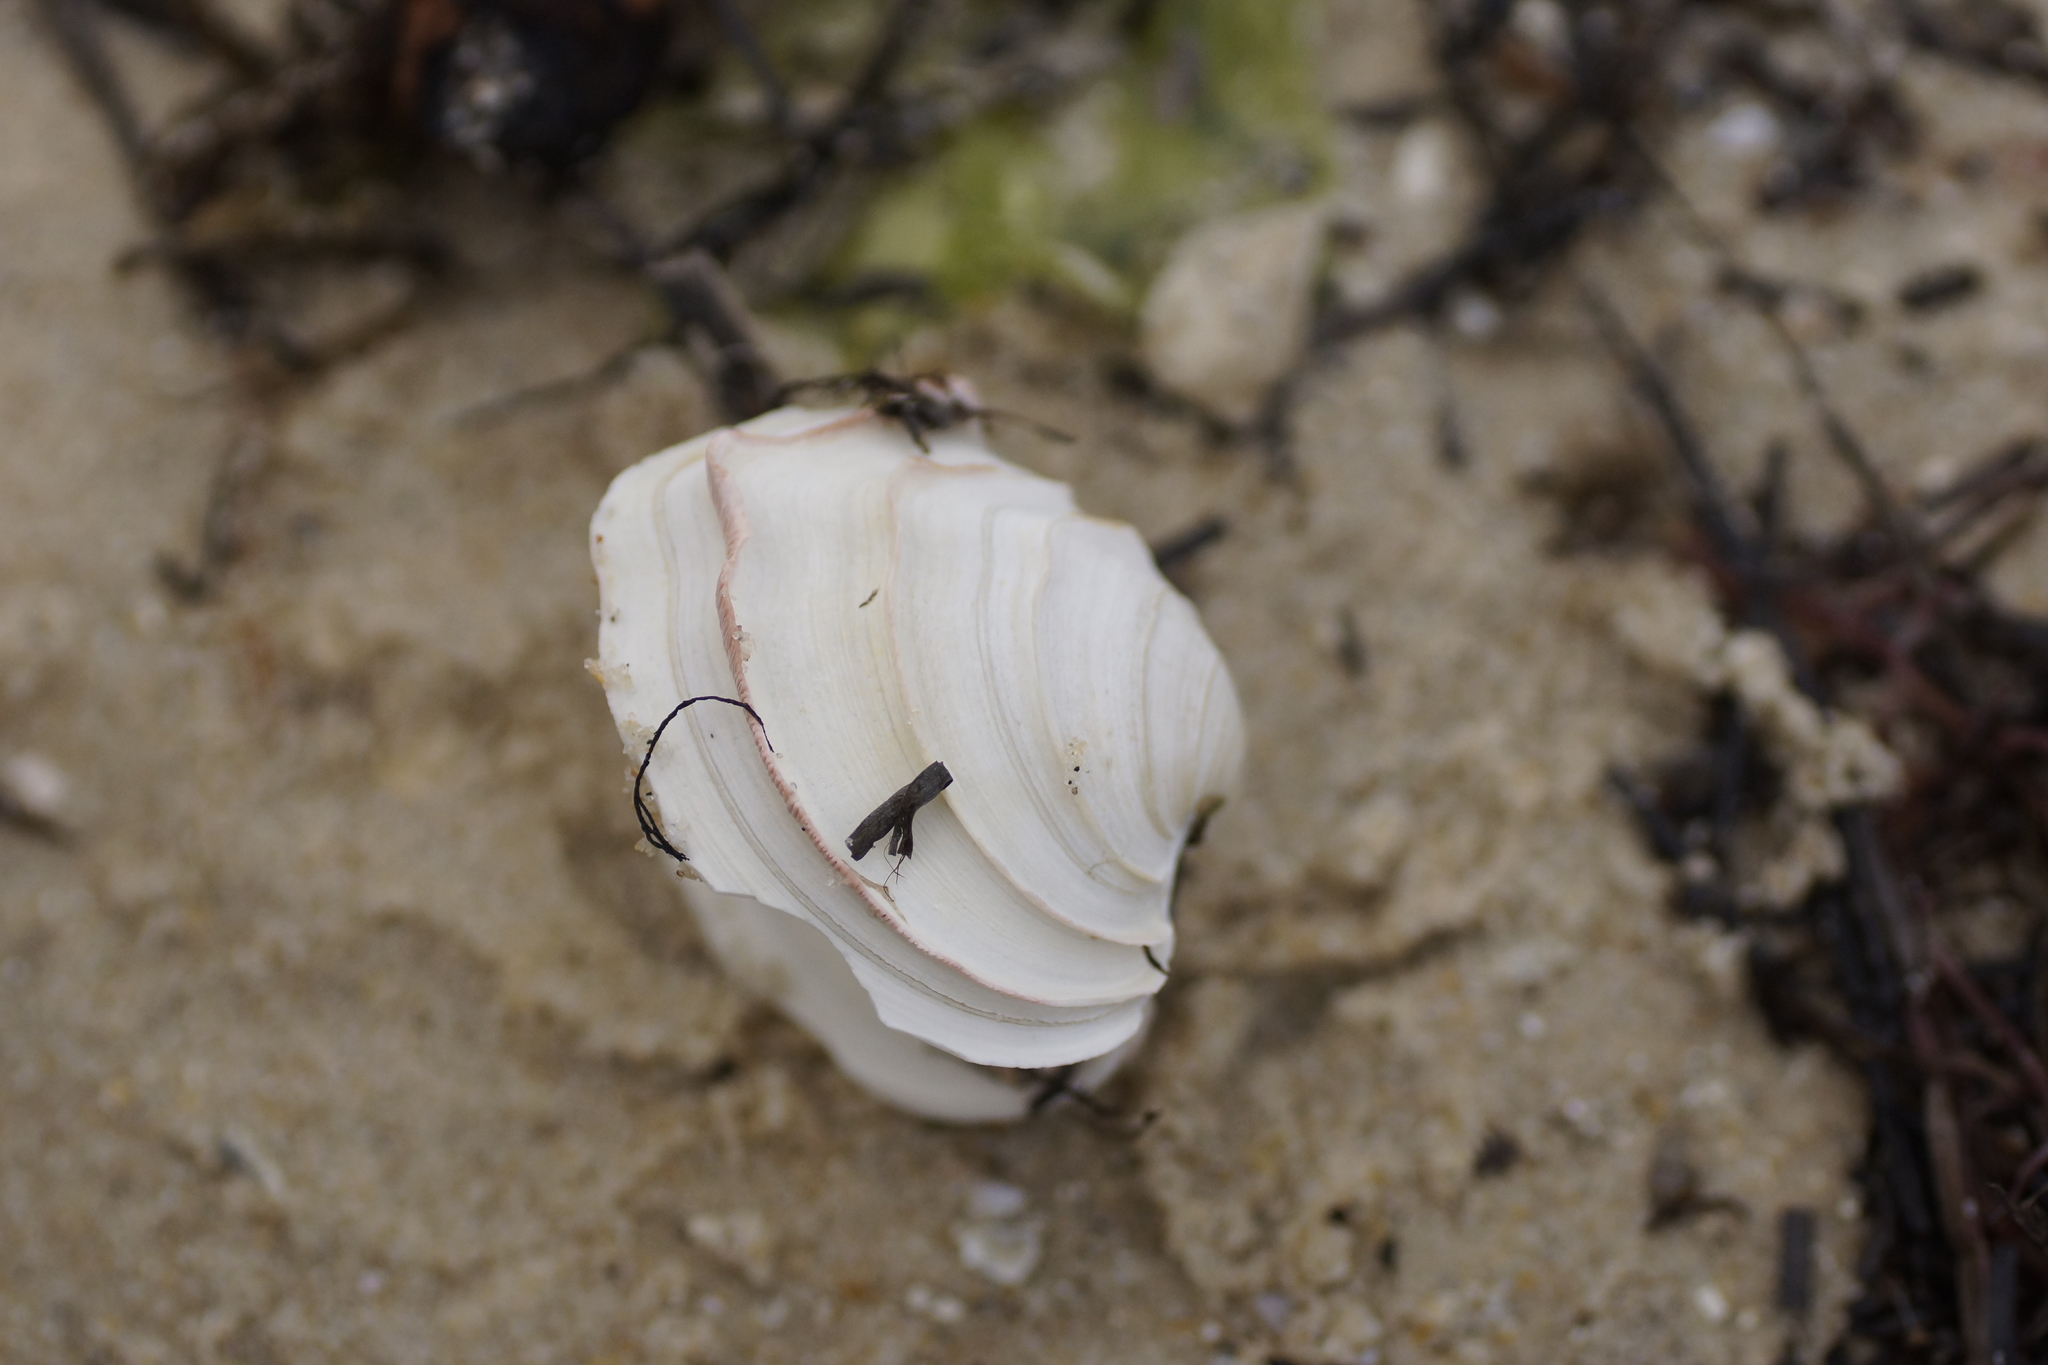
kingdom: Animalia
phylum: Mollusca
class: Bivalvia
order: Venerida
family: Veneridae
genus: Bassina
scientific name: Bassina disjecta
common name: Wedding-cake venus
